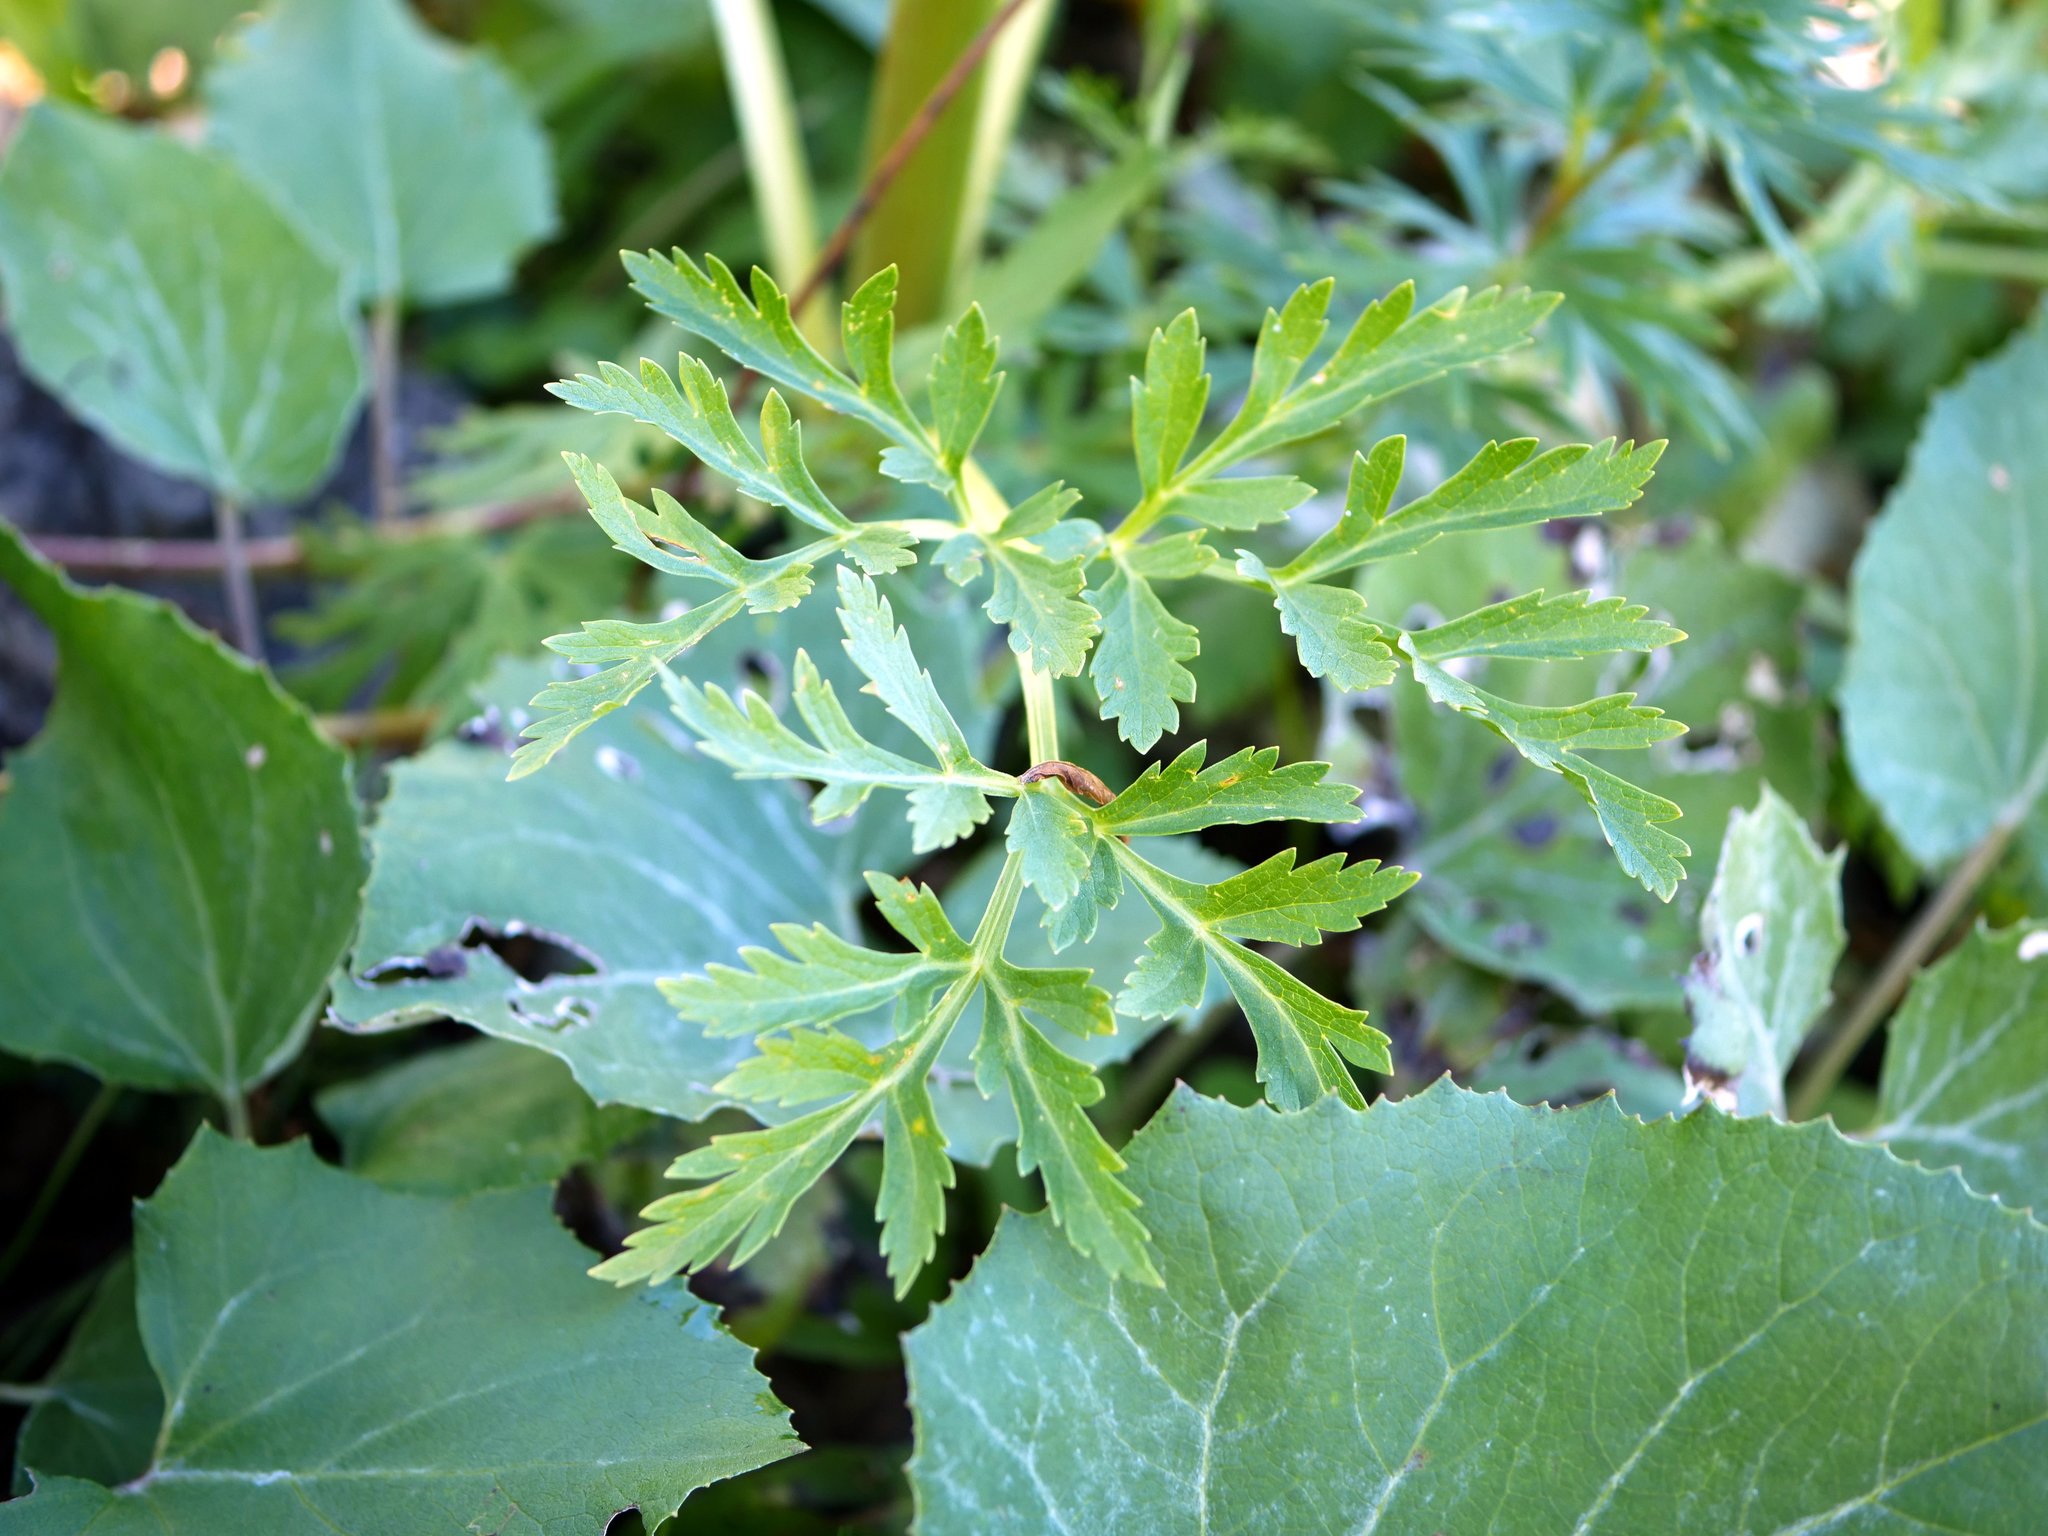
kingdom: Plantae
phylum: Tracheophyta
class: Magnoliopsida
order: Apiales
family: Apiaceae
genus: Pleurospermum
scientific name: Pleurospermum austriacum
